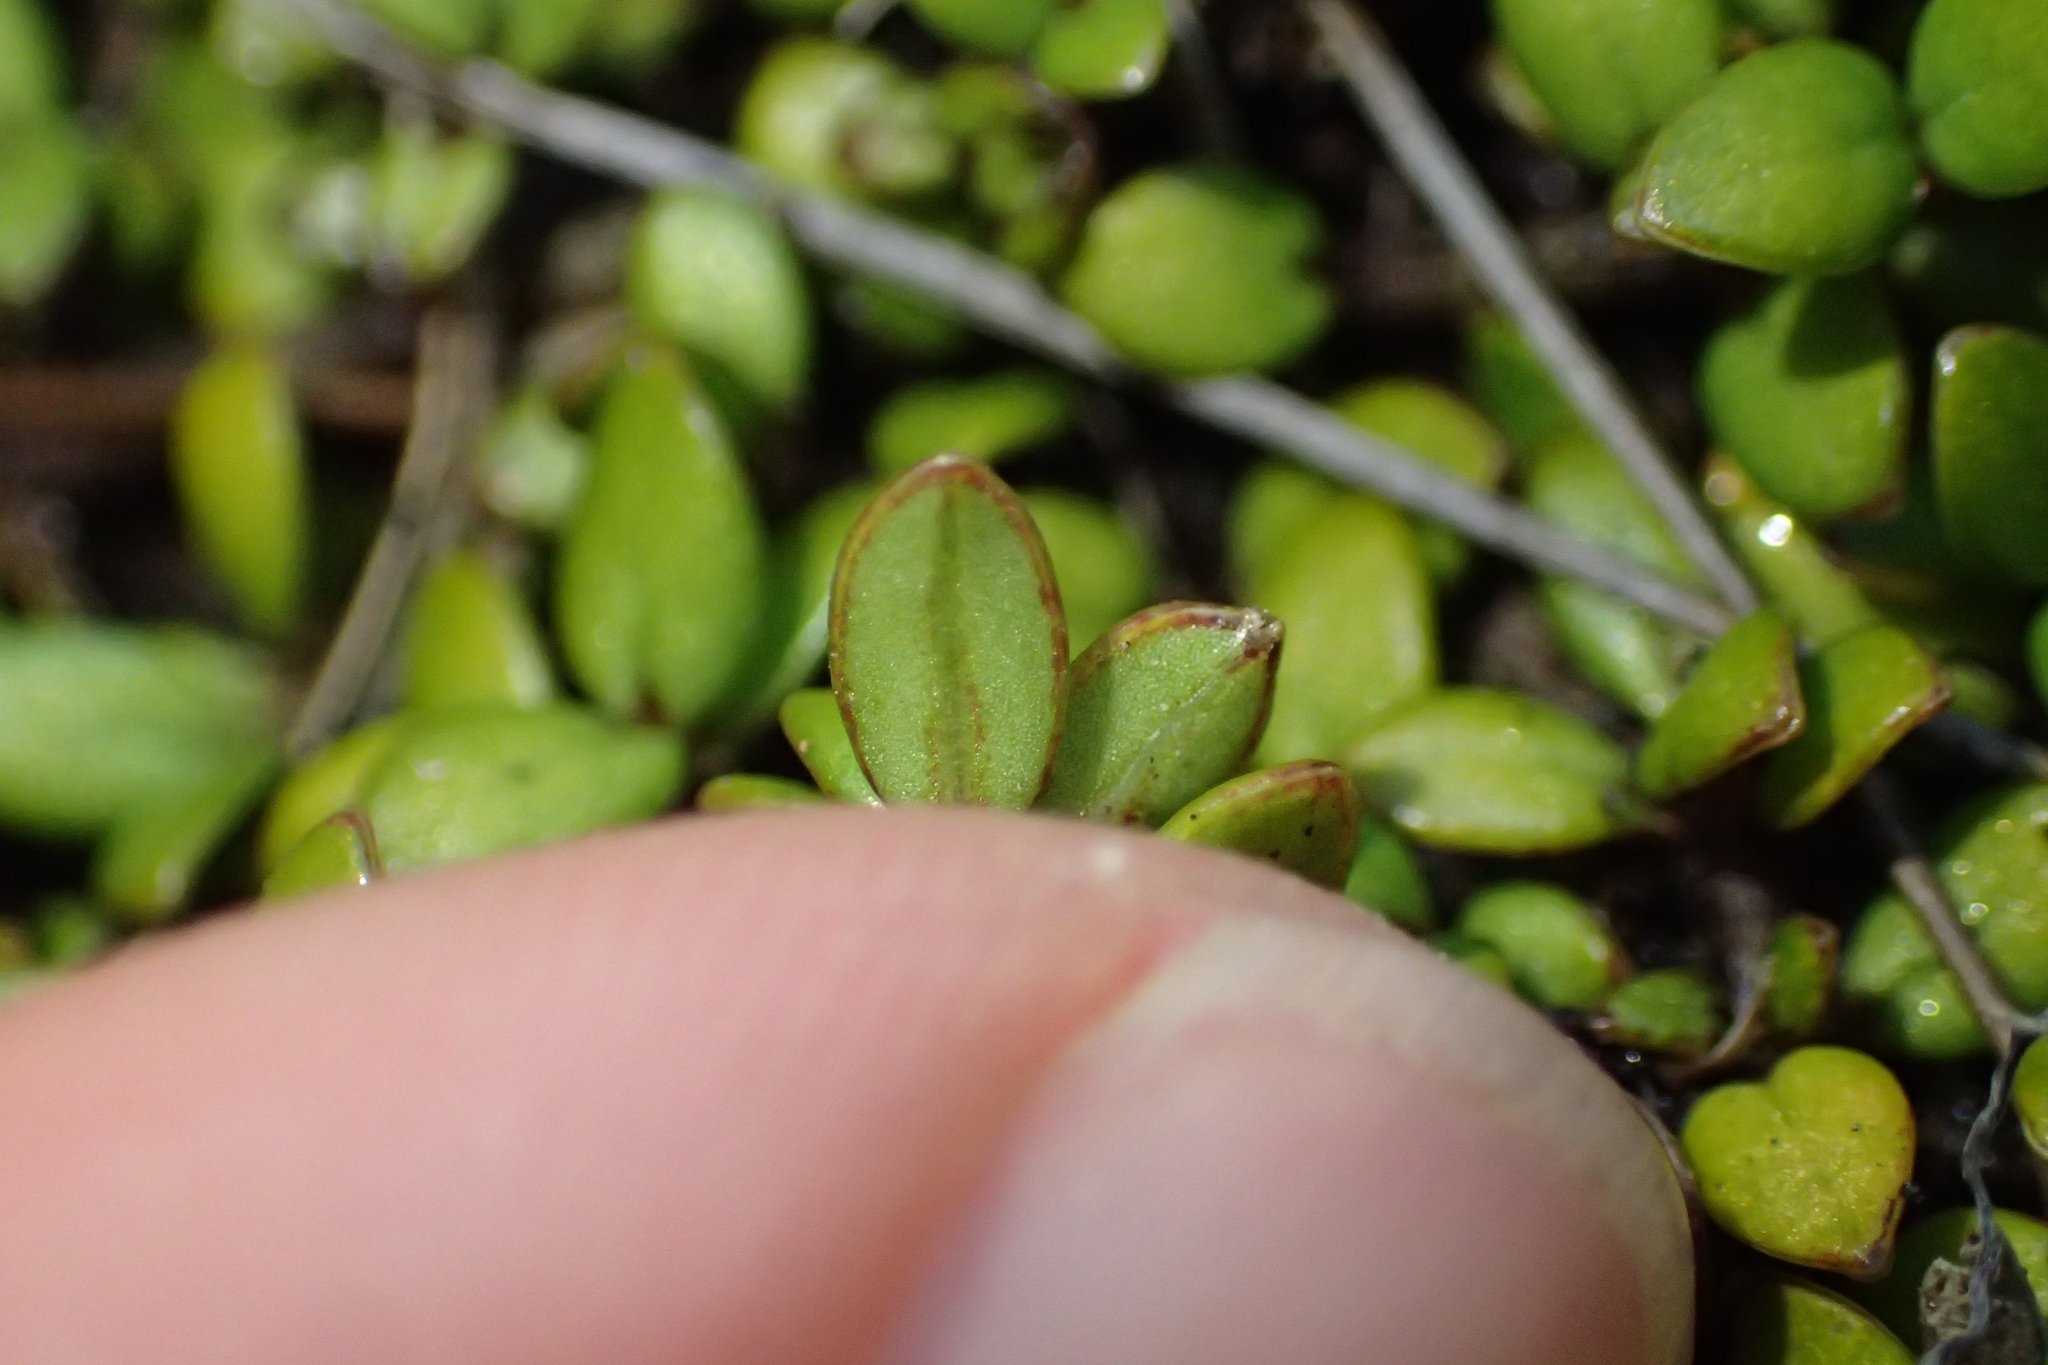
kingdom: Plantae
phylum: Tracheophyta
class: Magnoliopsida
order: Gentianales
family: Rubiaceae
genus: Coprosma
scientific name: Coprosma perpusilla
